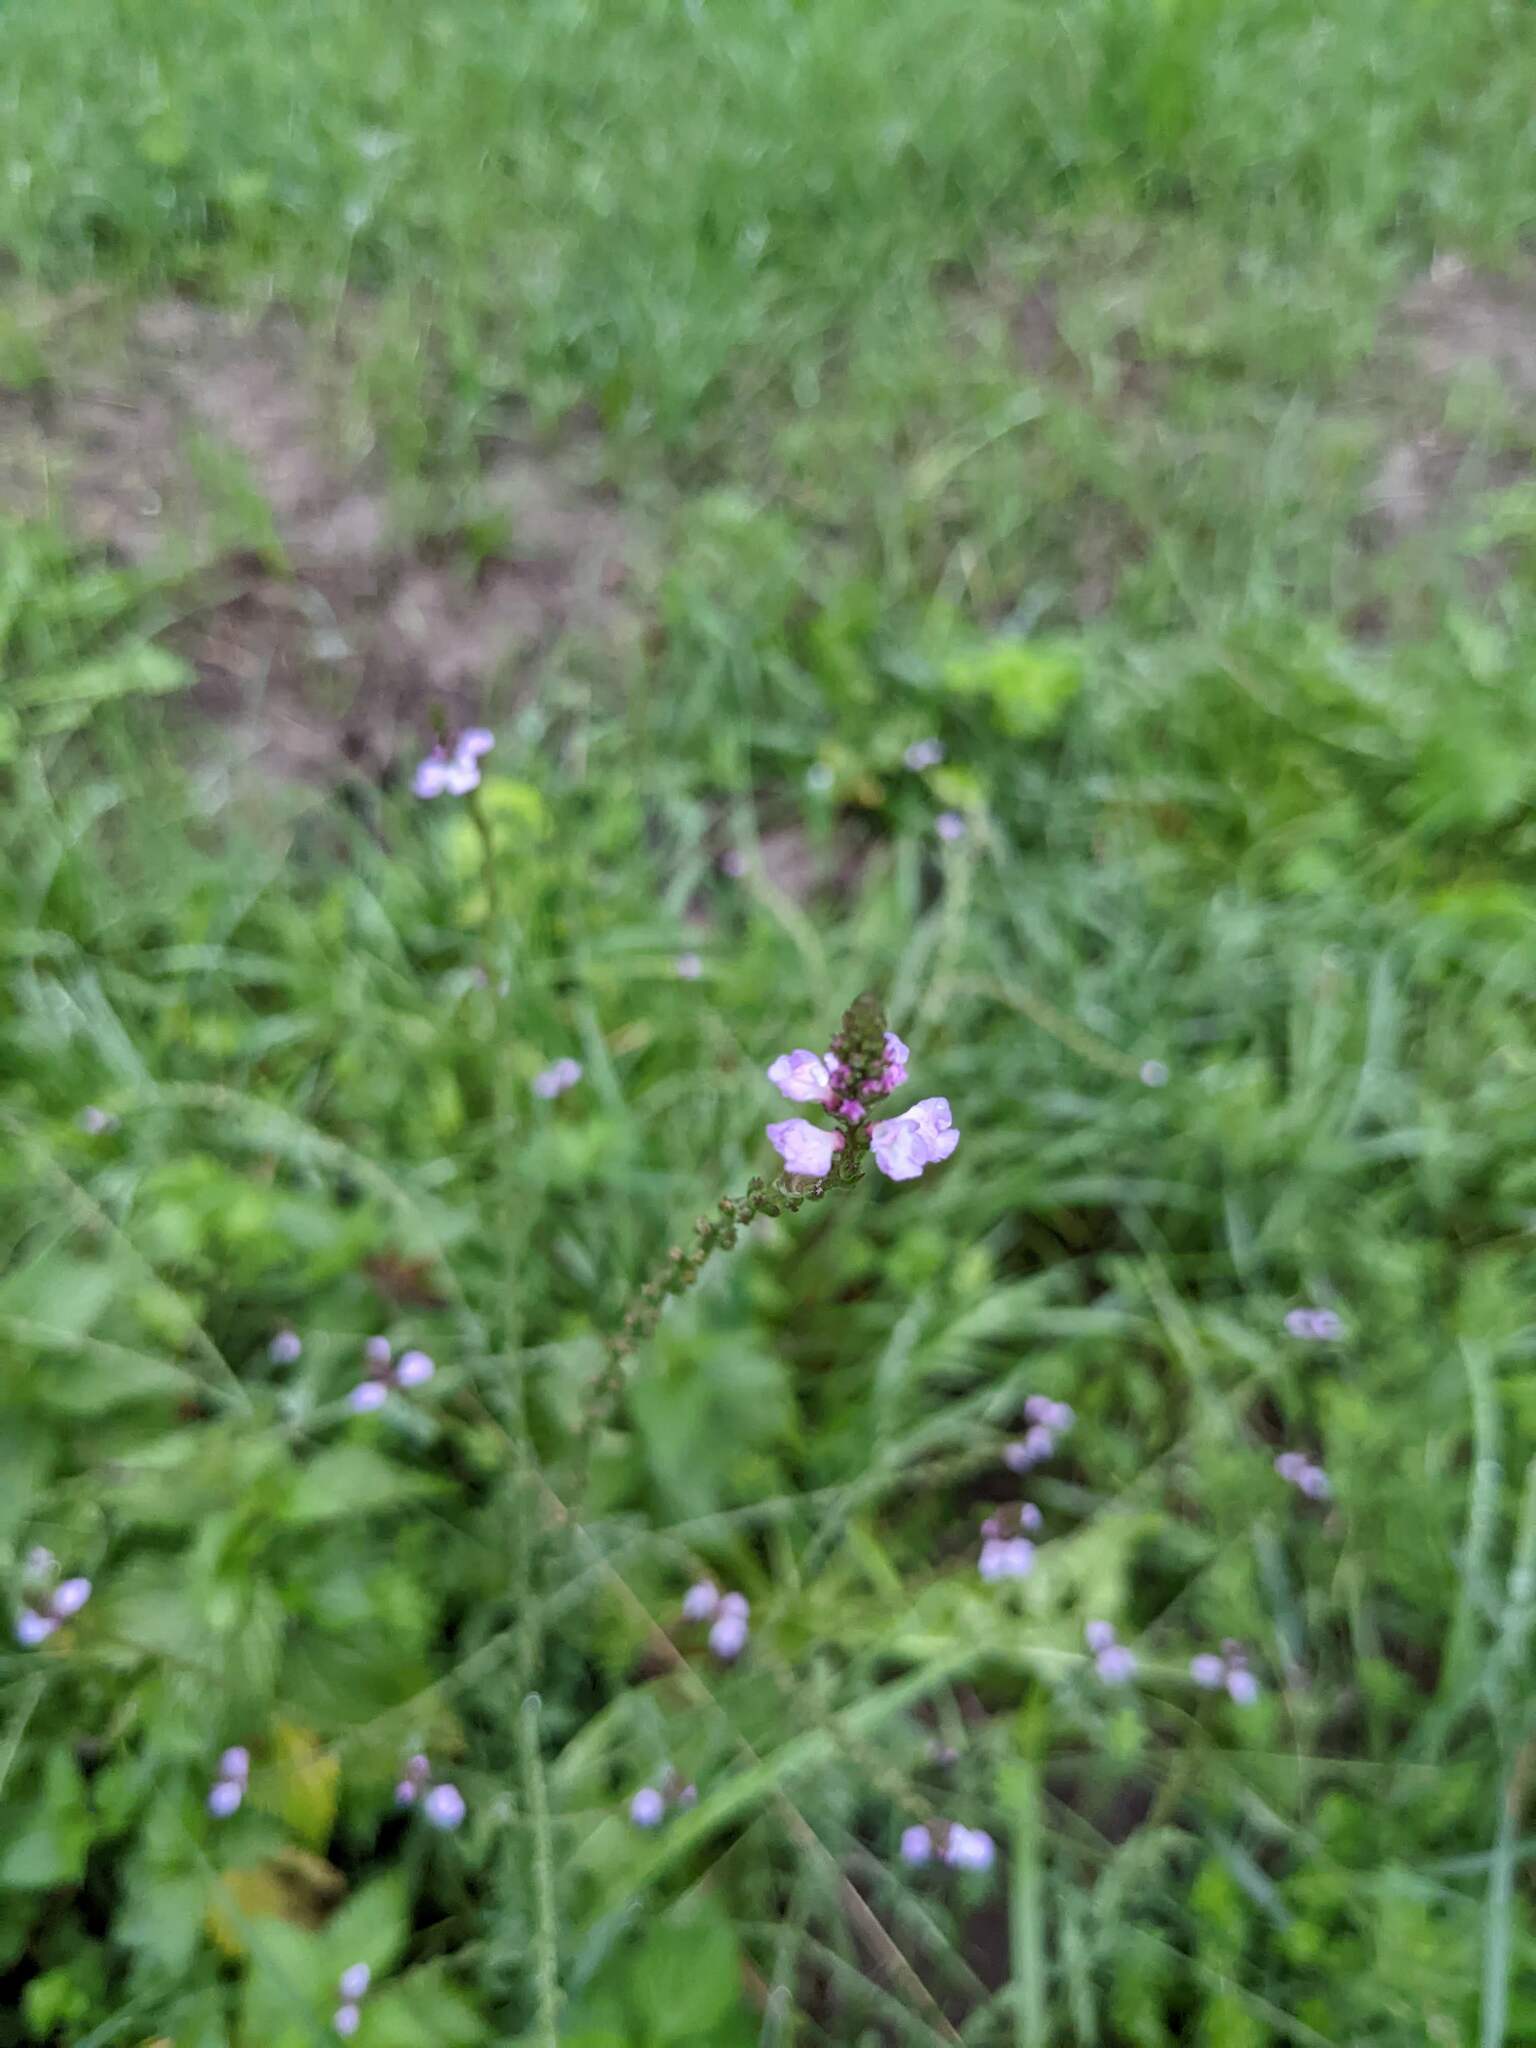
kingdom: Plantae
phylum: Tracheophyta
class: Magnoliopsida
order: Lamiales
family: Verbenaceae
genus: Verbena
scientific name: Verbena officinalis
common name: Vervain
